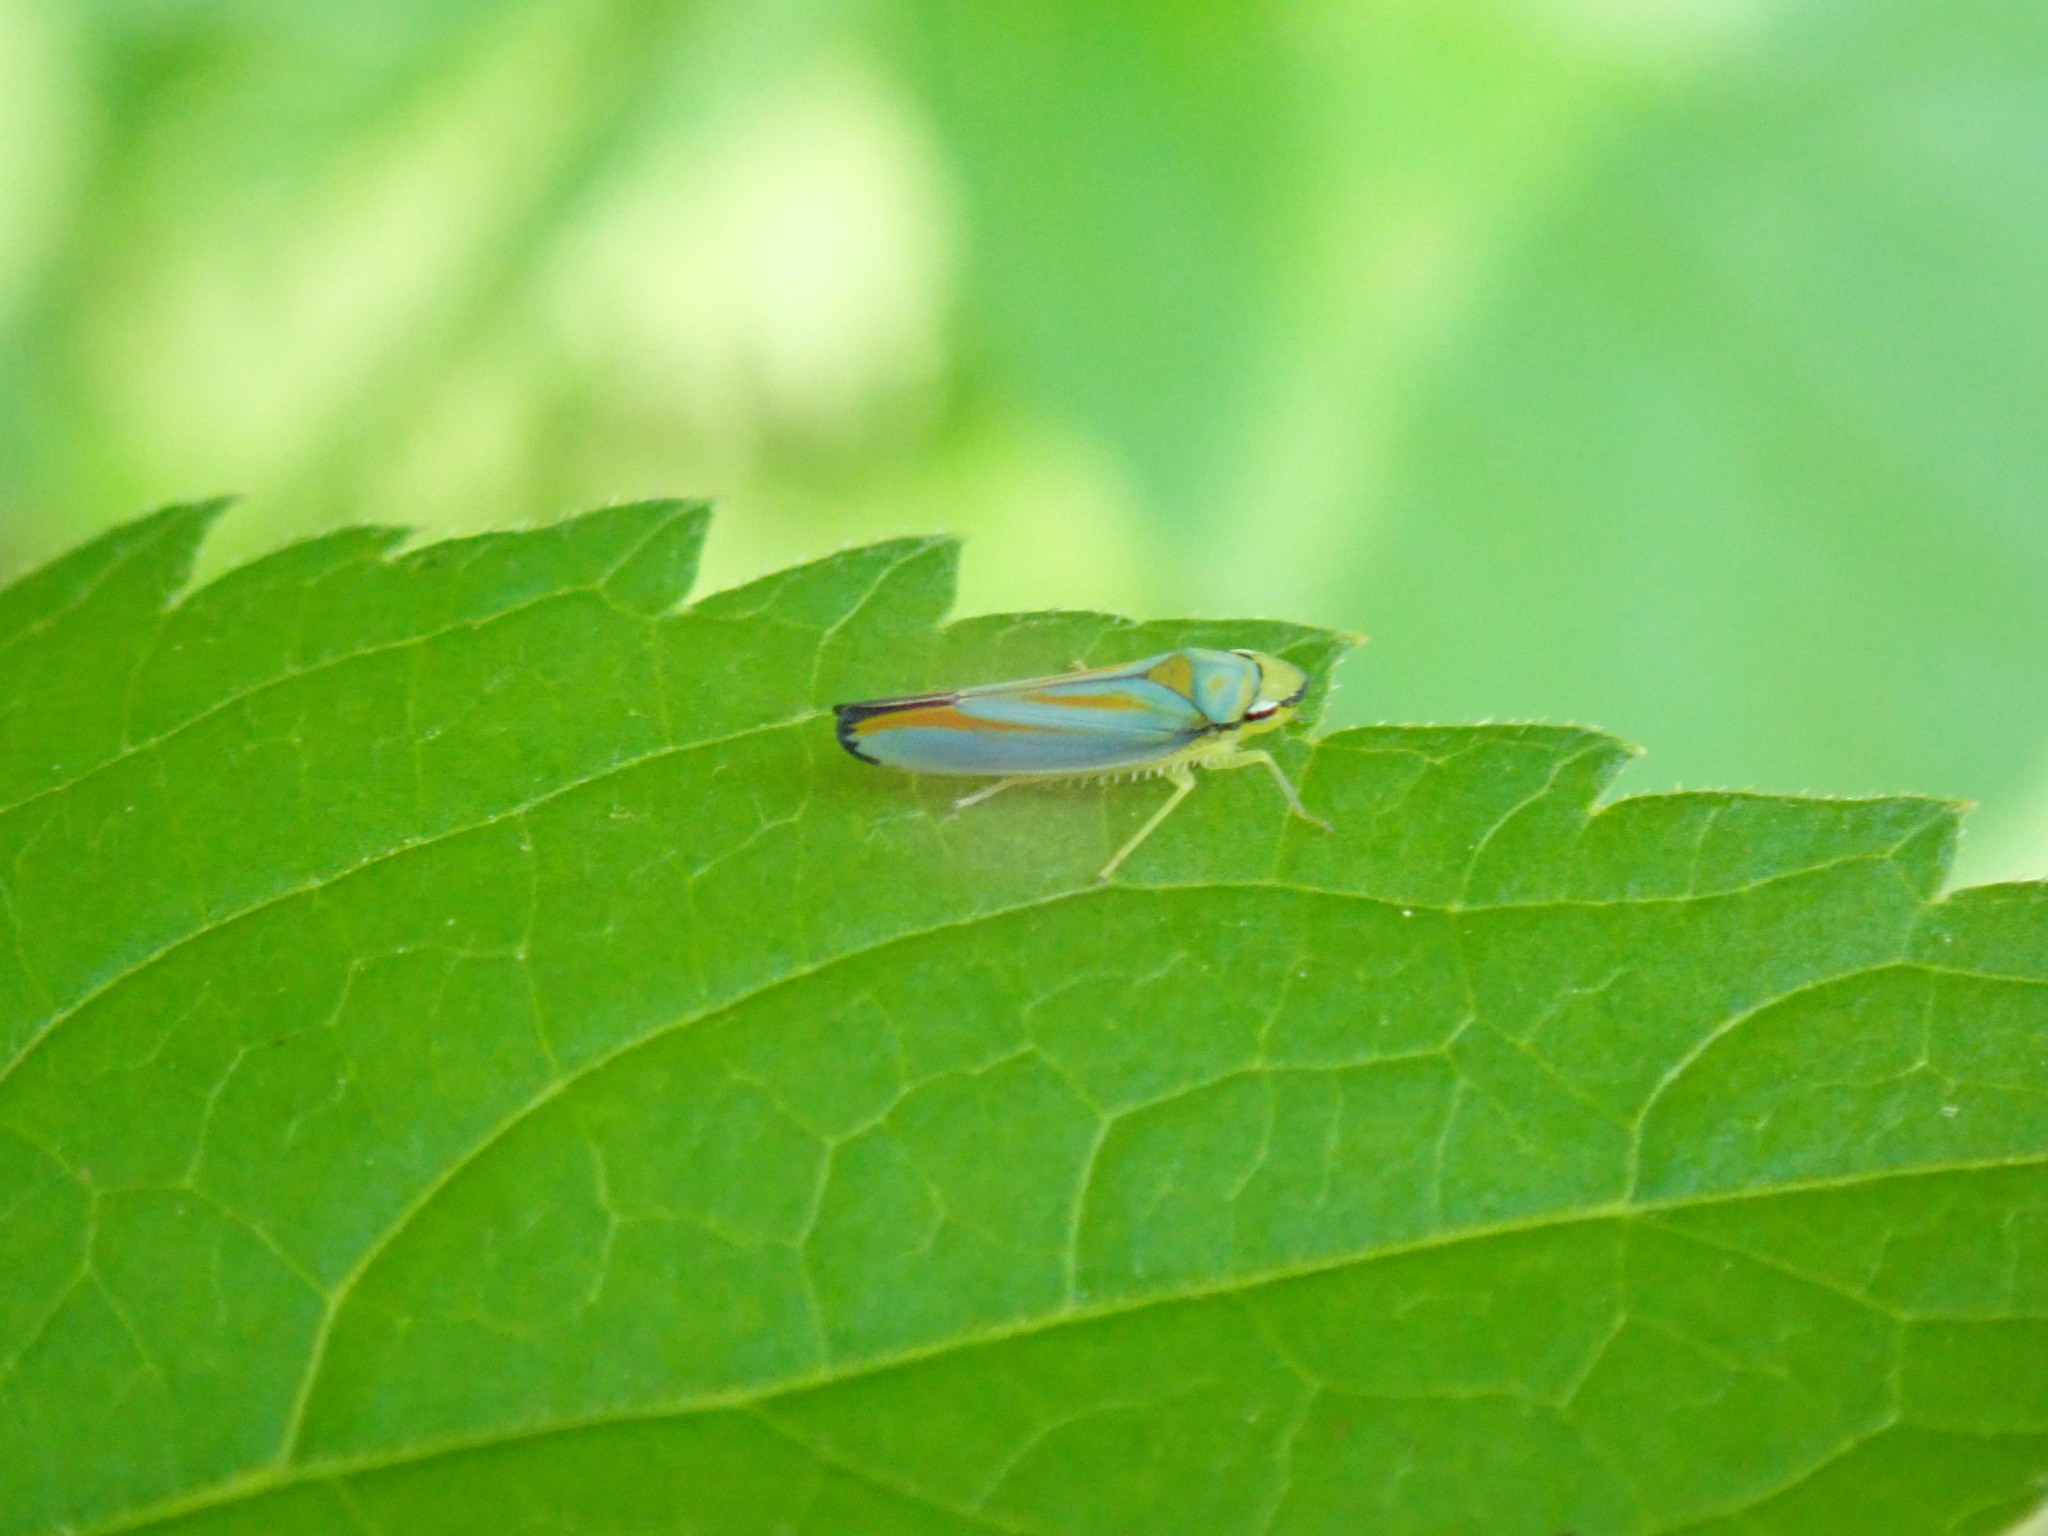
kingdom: Animalia
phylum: Arthropoda
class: Insecta
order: Hemiptera
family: Cicadellidae
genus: Graphocephala
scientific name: Graphocephala fennahi
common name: Rhododendron leafhopper
